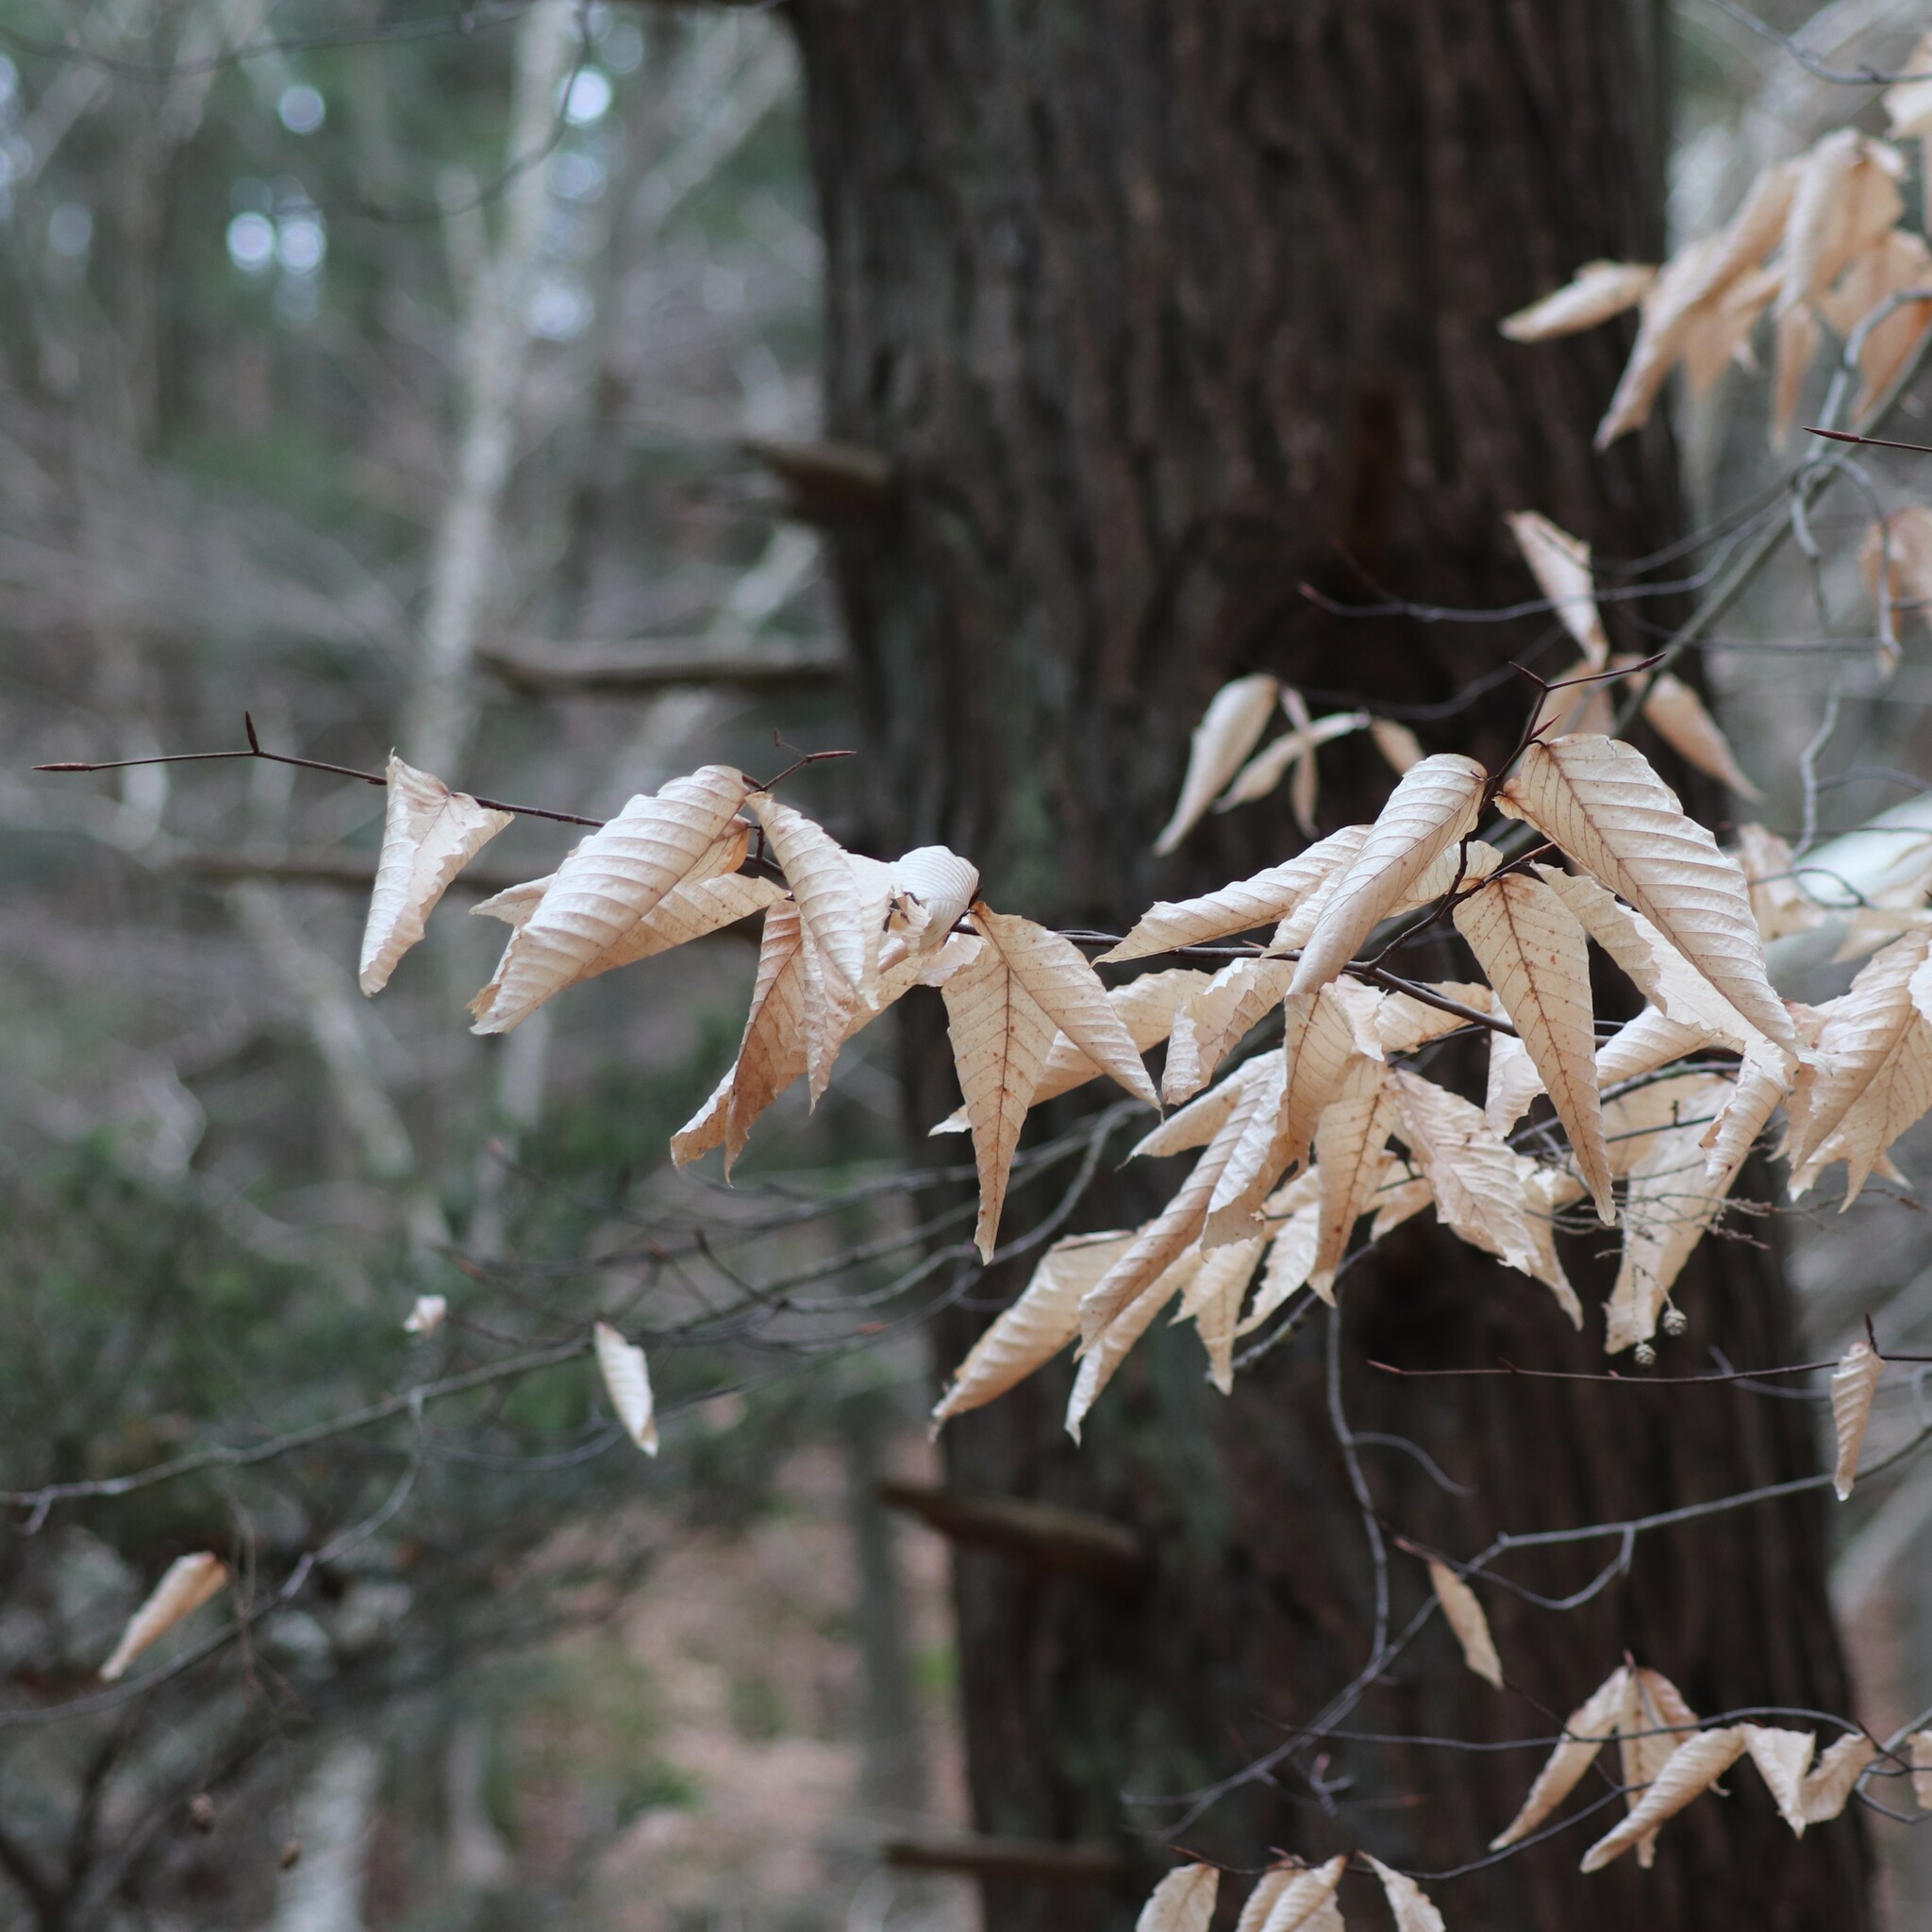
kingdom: Plantae
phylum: Tracheophyta
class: Magnoliopsida
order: Fagales
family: Fagaceae
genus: Fagus
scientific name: Fagus grandifolia
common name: American beech
